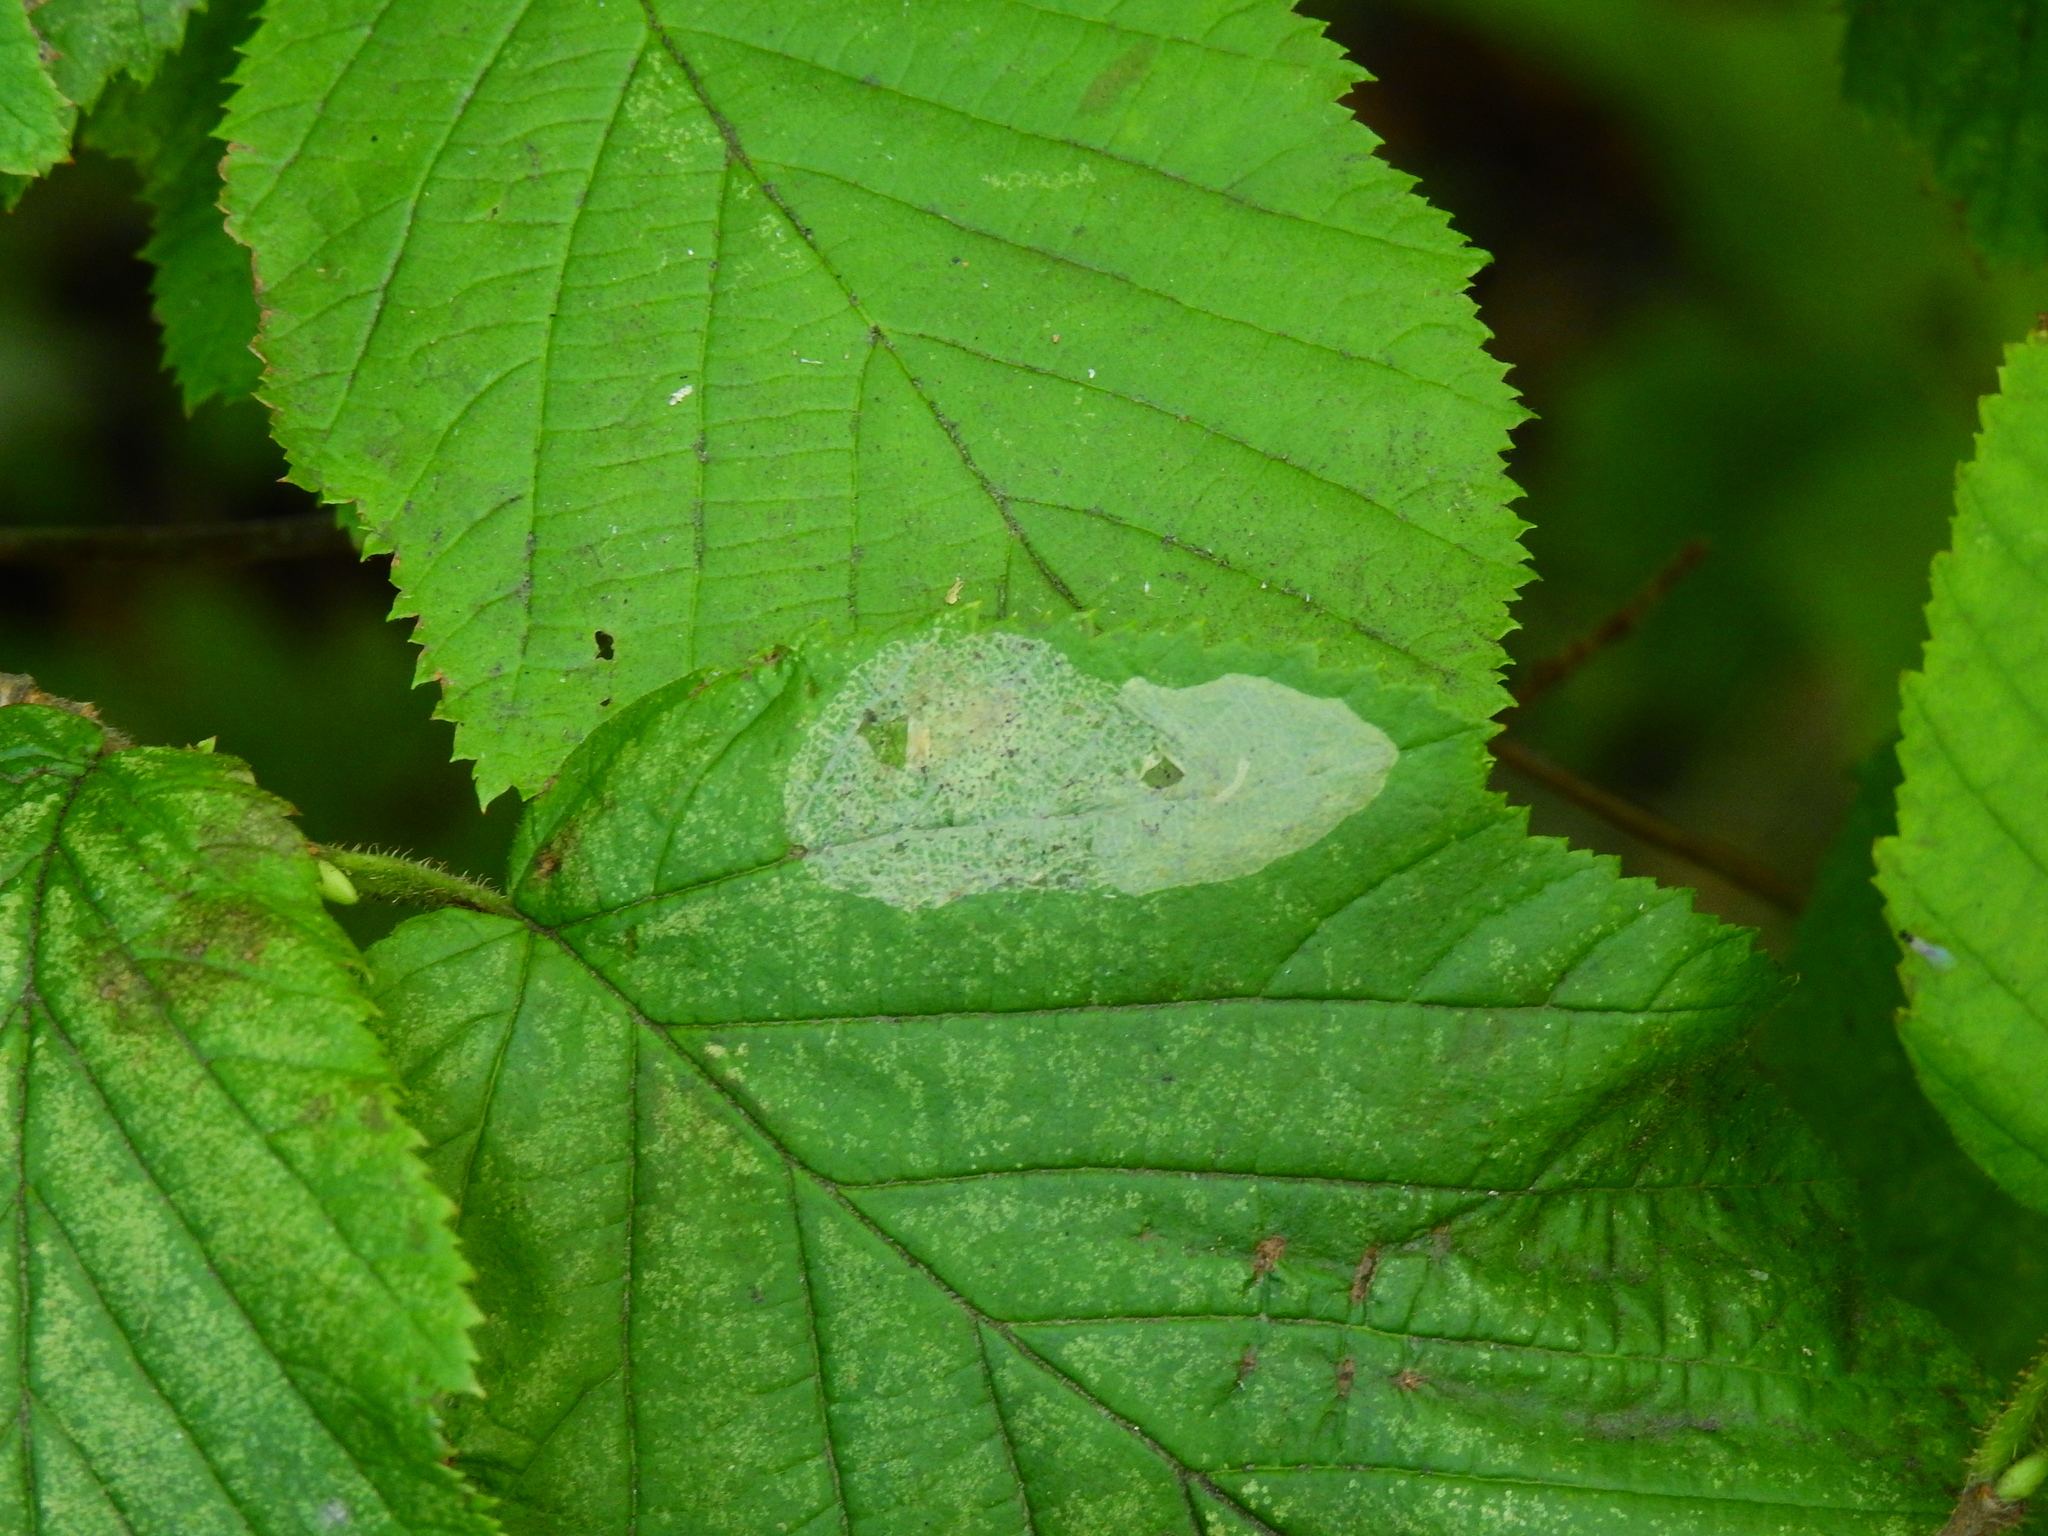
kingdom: Animalia
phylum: Arthropoda
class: Insecta
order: Lepidoptera
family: Gracillariidae
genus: Phyllonorycter
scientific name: Phyllonorycter coryli
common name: Nut-leaf blister moth
